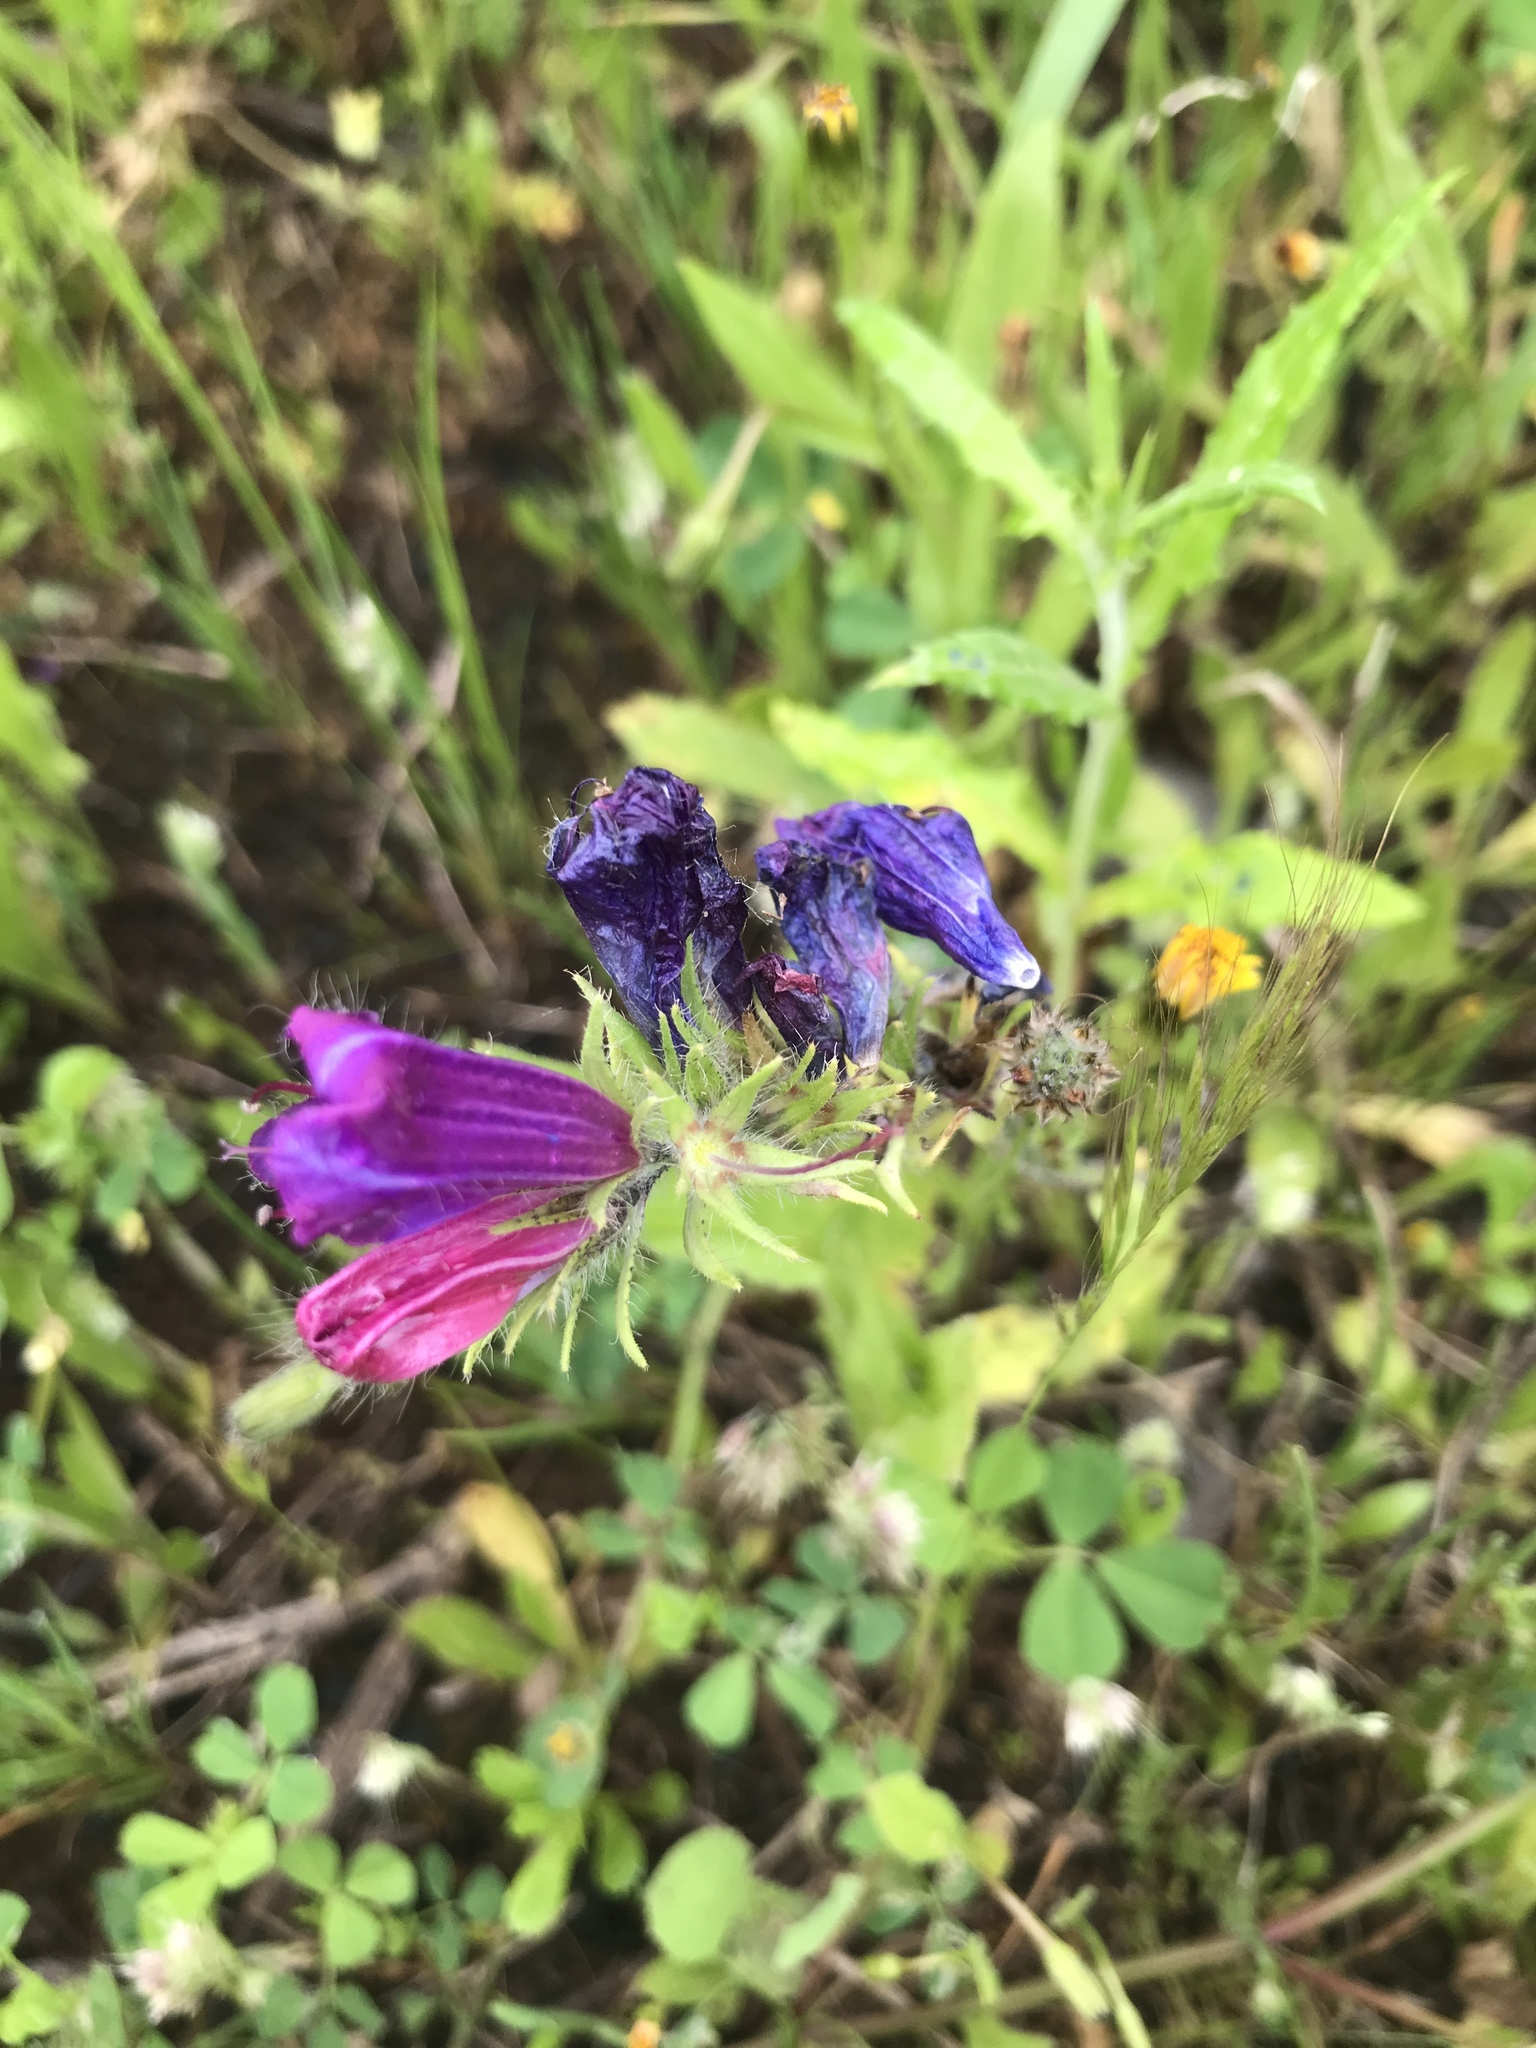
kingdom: Plantae
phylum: Tracheophyta
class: Magnoliopsida
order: Boraginales
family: Boraginaceae
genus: Echium
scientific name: Echium plantagineum
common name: Purple viper's-bugloss
